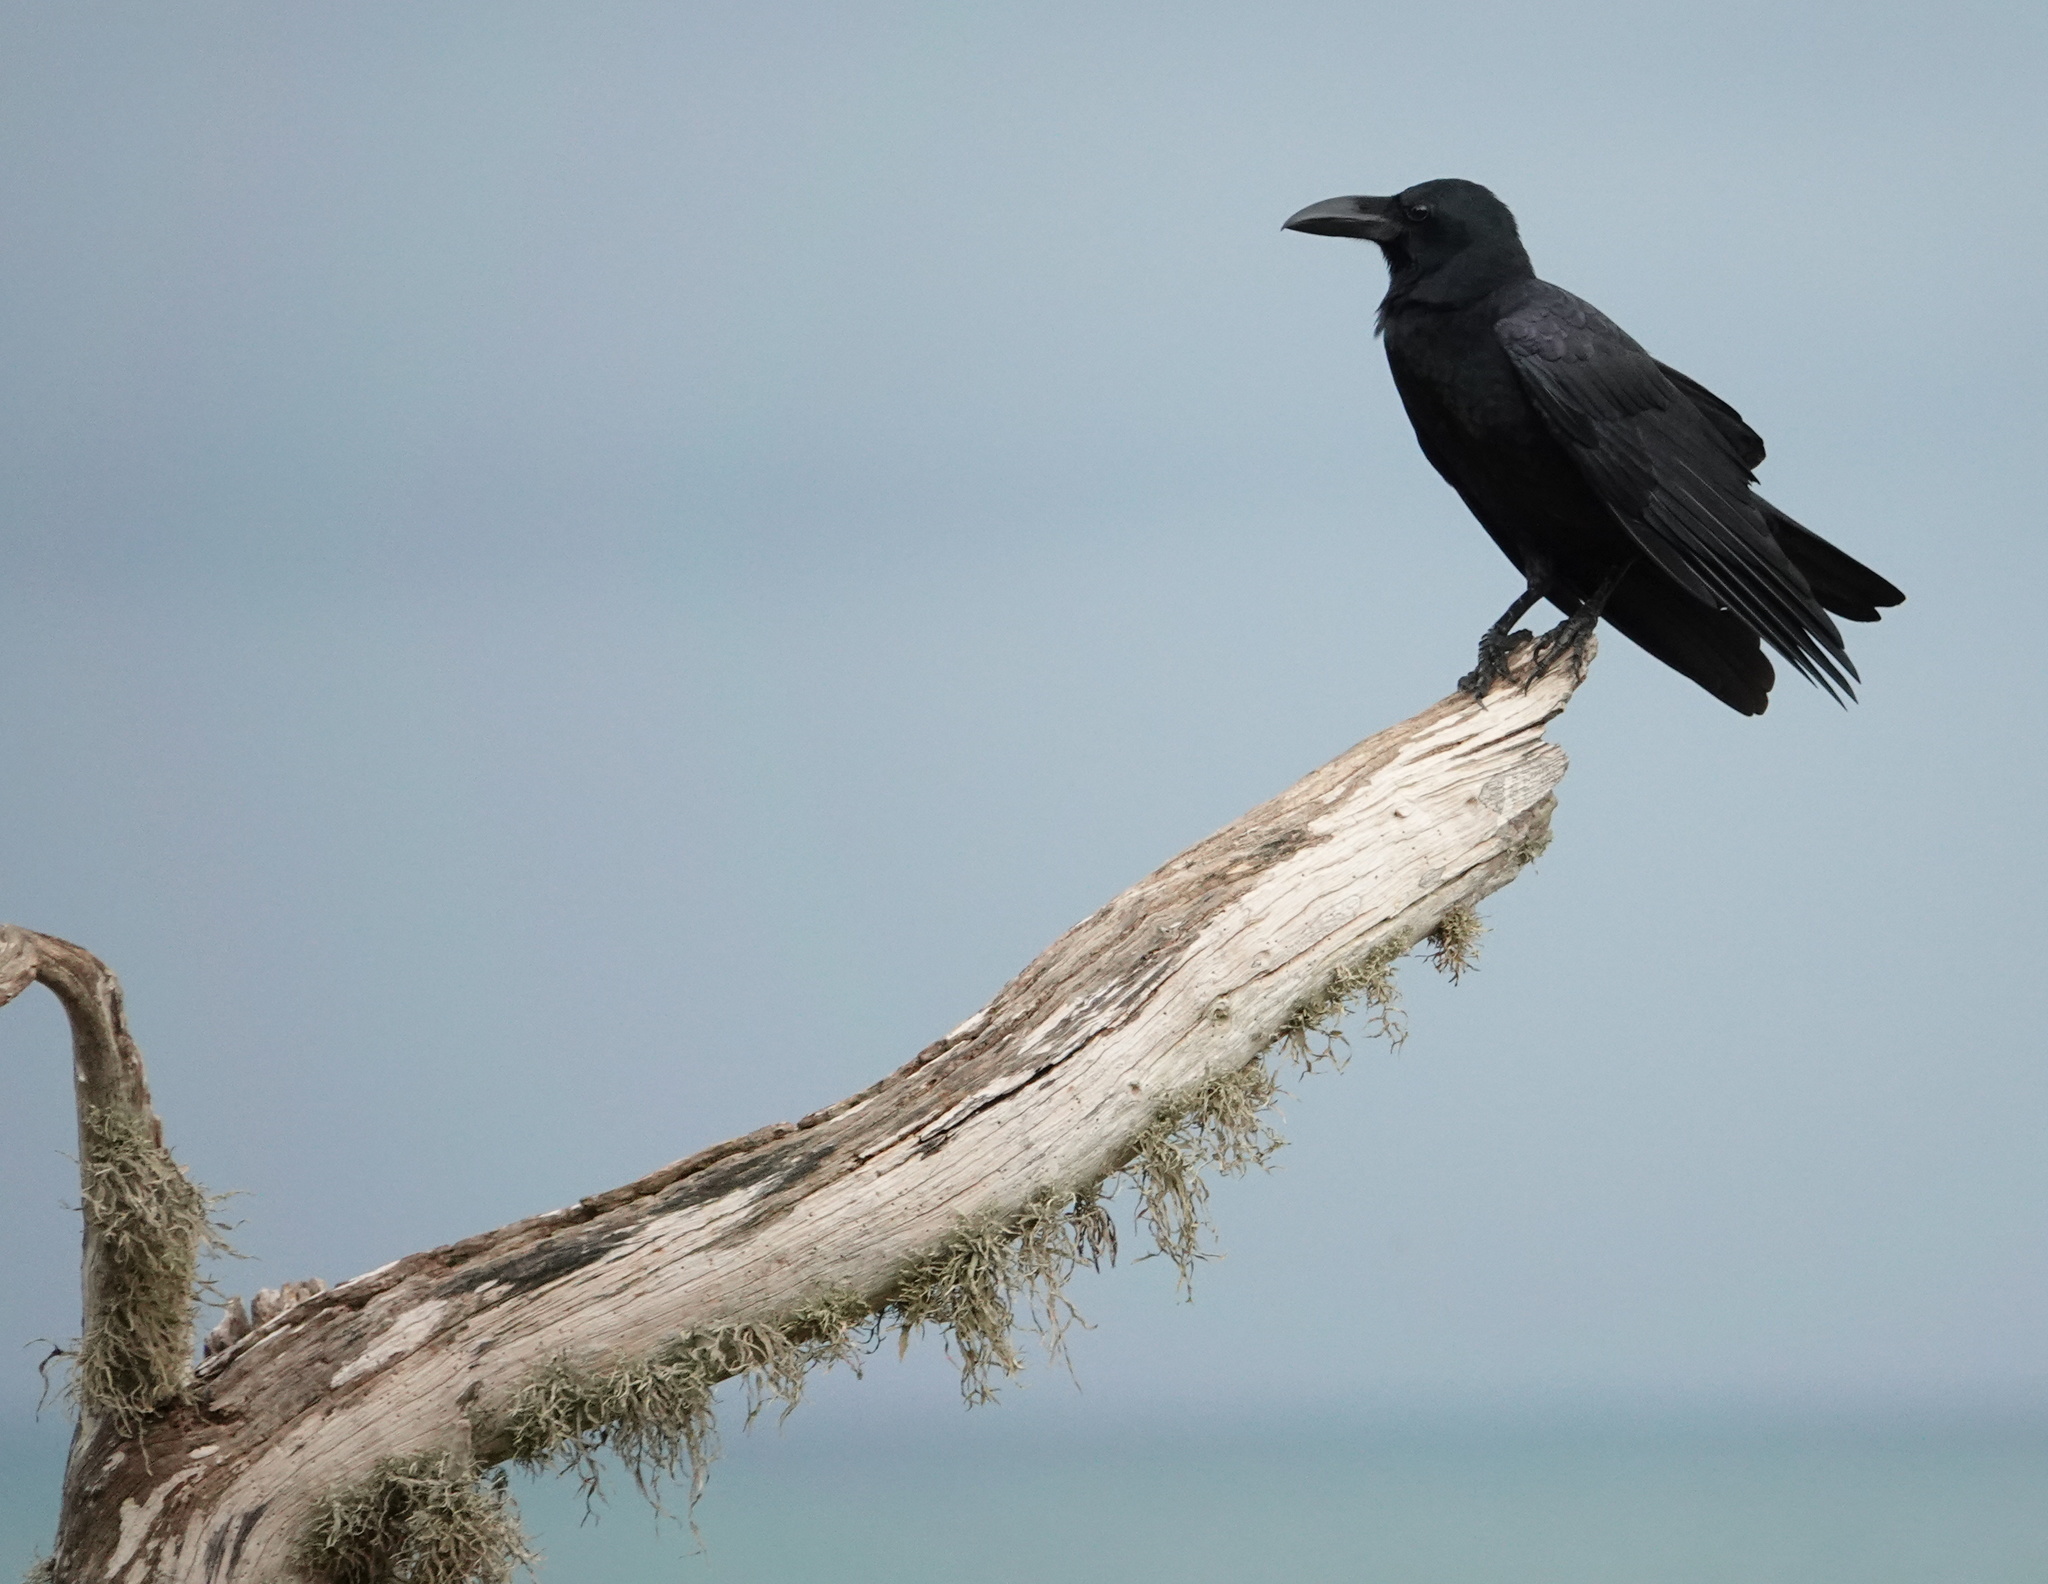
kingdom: Animalia
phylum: Chordata
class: Aves
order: Passeriformes
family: Corvidae
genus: Corvus
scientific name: Corvus macrorhynchos
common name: Large-billed crow
